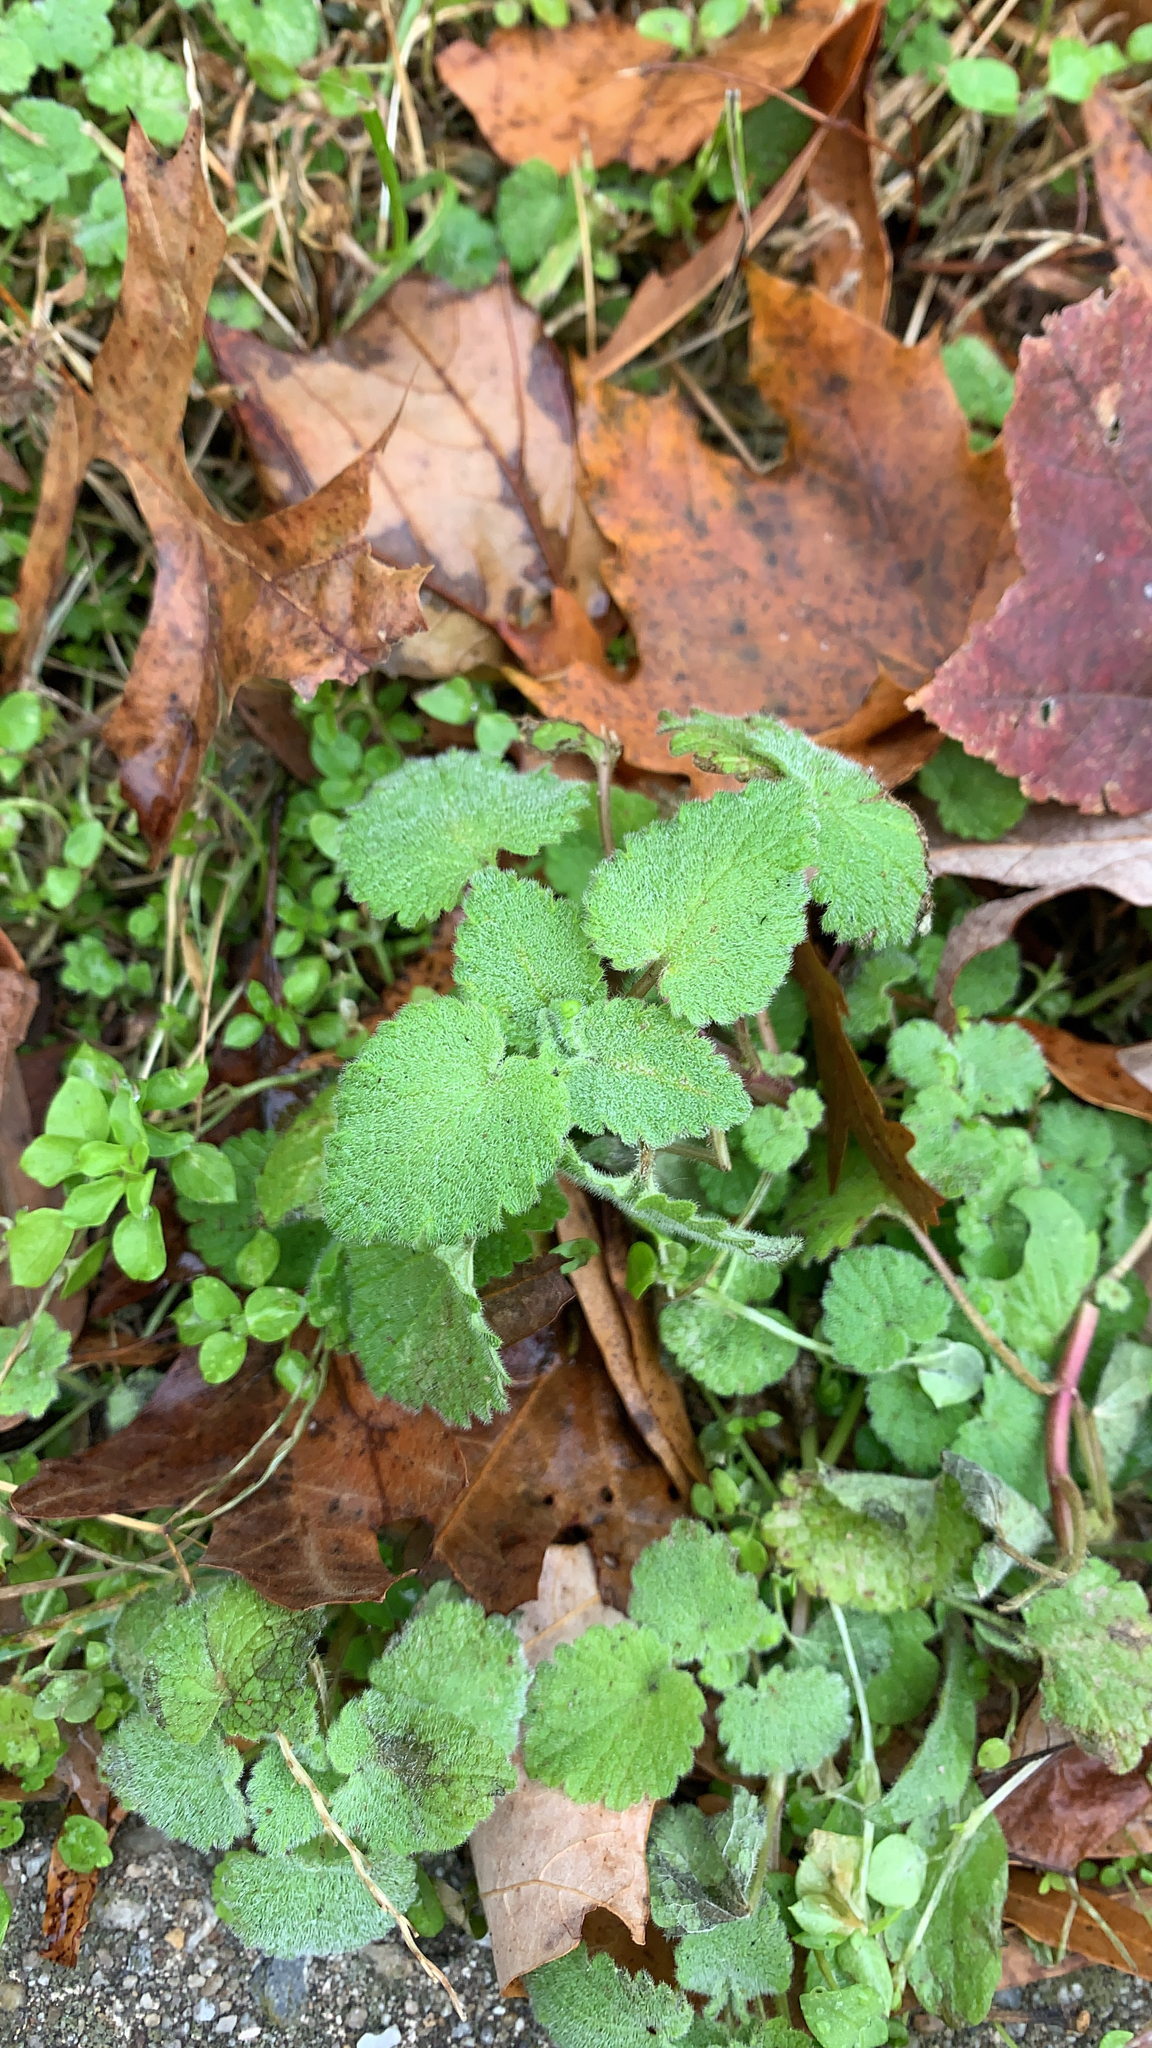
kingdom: Plantae
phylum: Tracheophyta
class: Magnoliopsida
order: Lamiales
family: Lamiaceae
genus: Lamium
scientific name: Lamium purpureum
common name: Red dead-nettle
